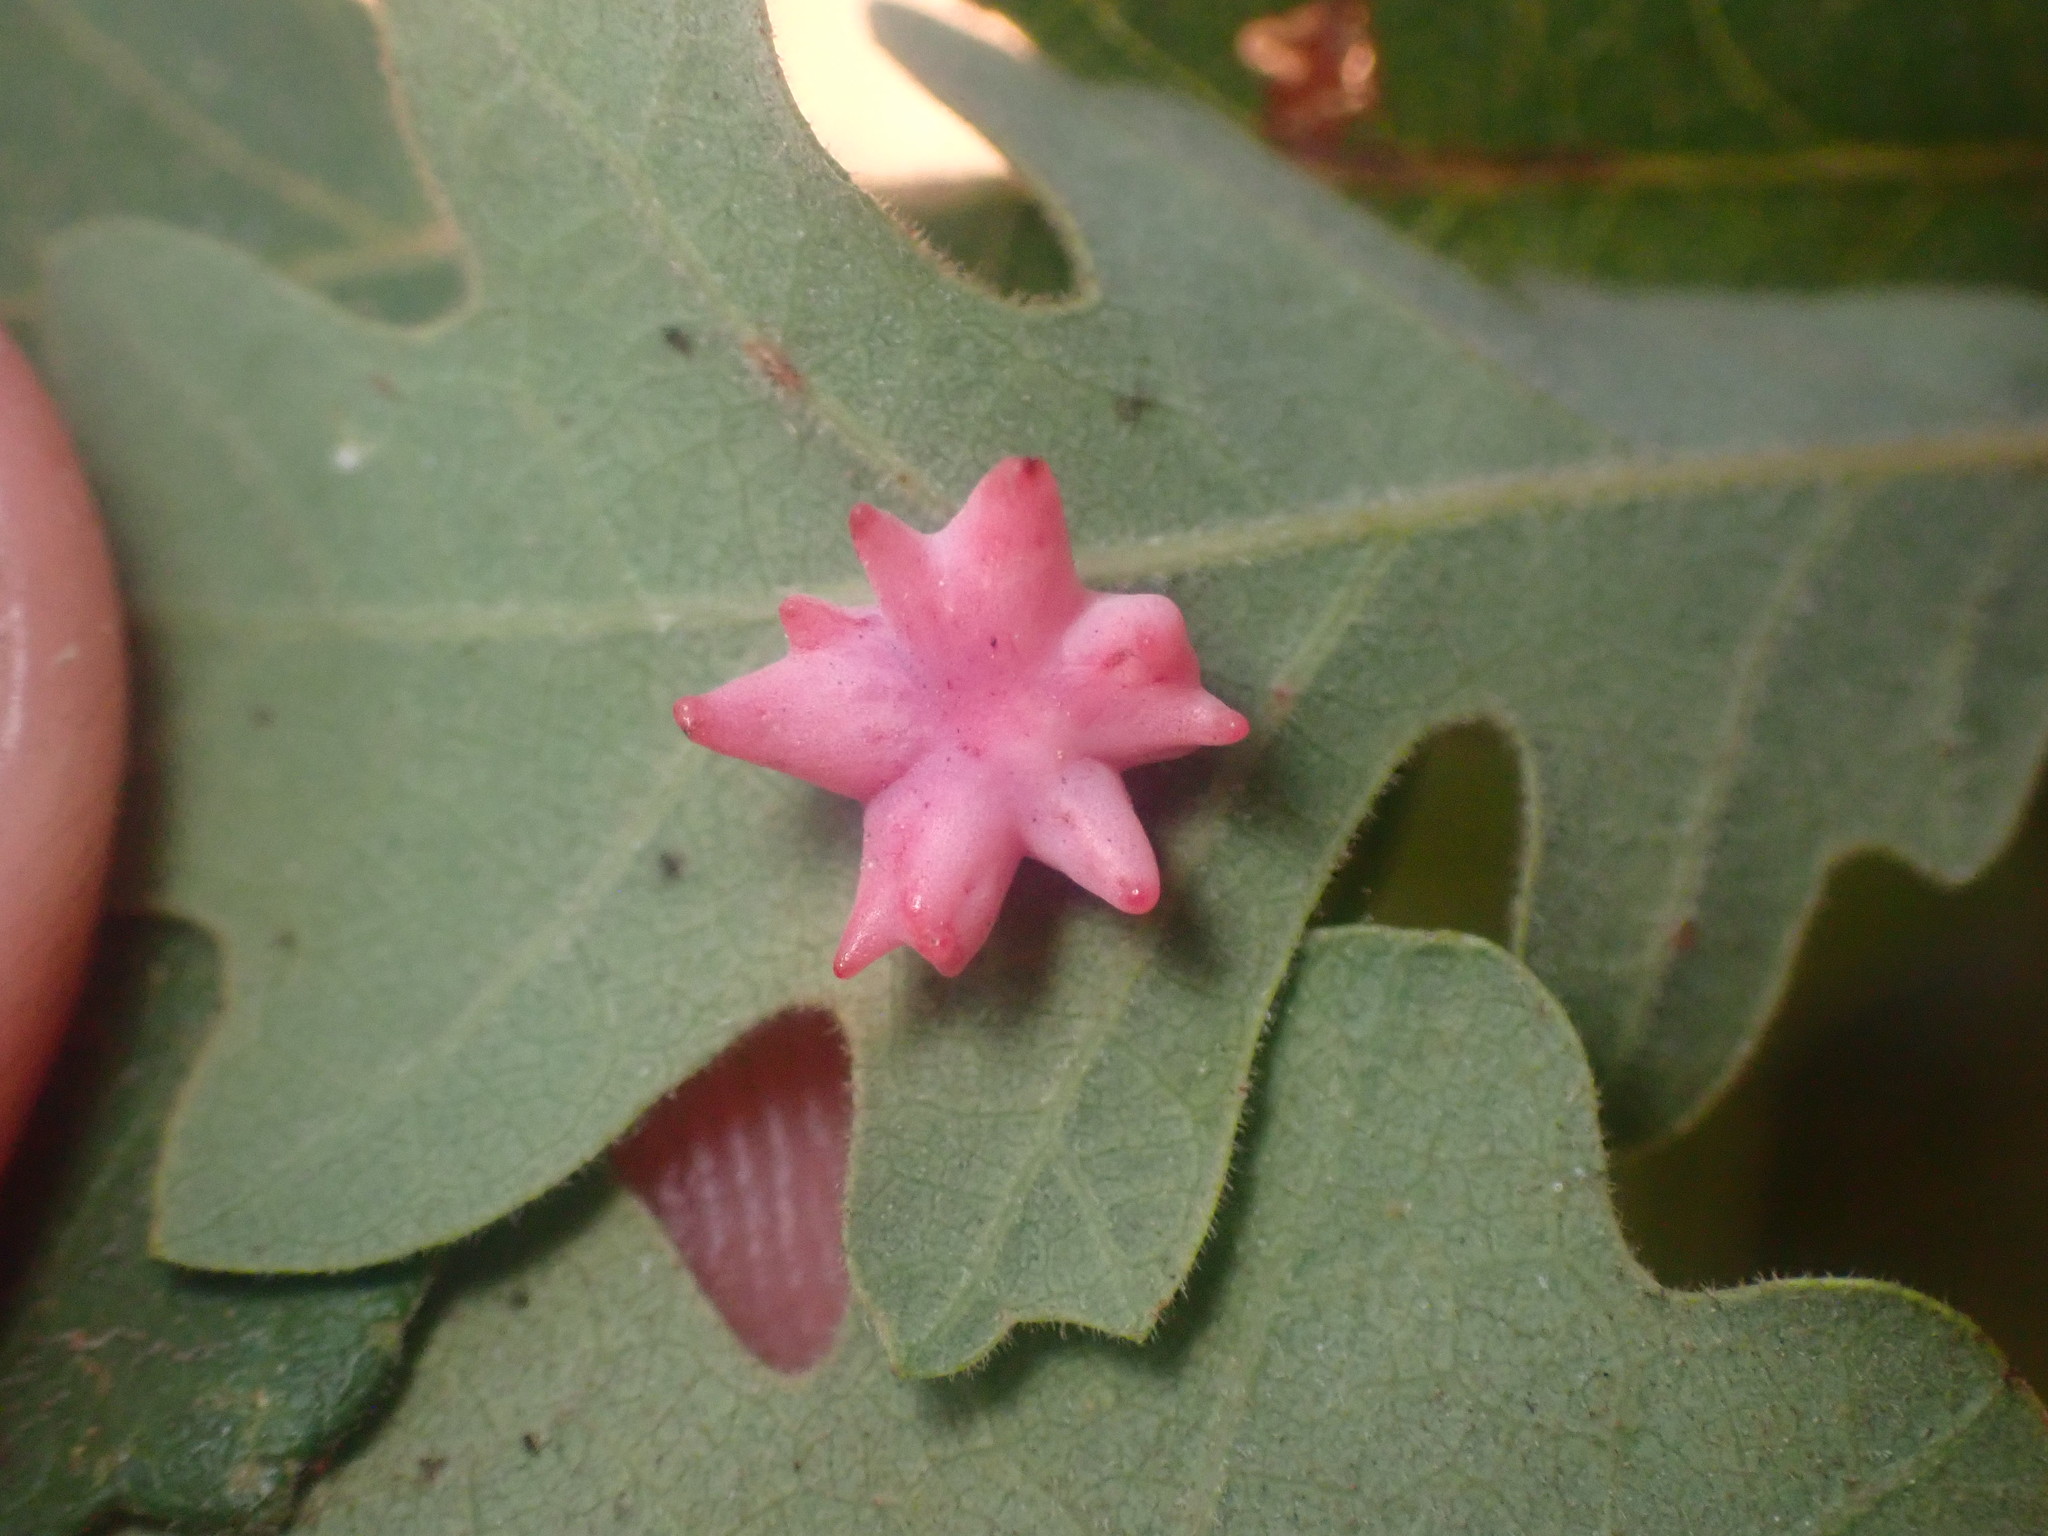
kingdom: Animalia
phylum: Arthropoda
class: Insecta
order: Hymenoptera
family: Cynipidae
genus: Cynips
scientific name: Cynips douglasi
